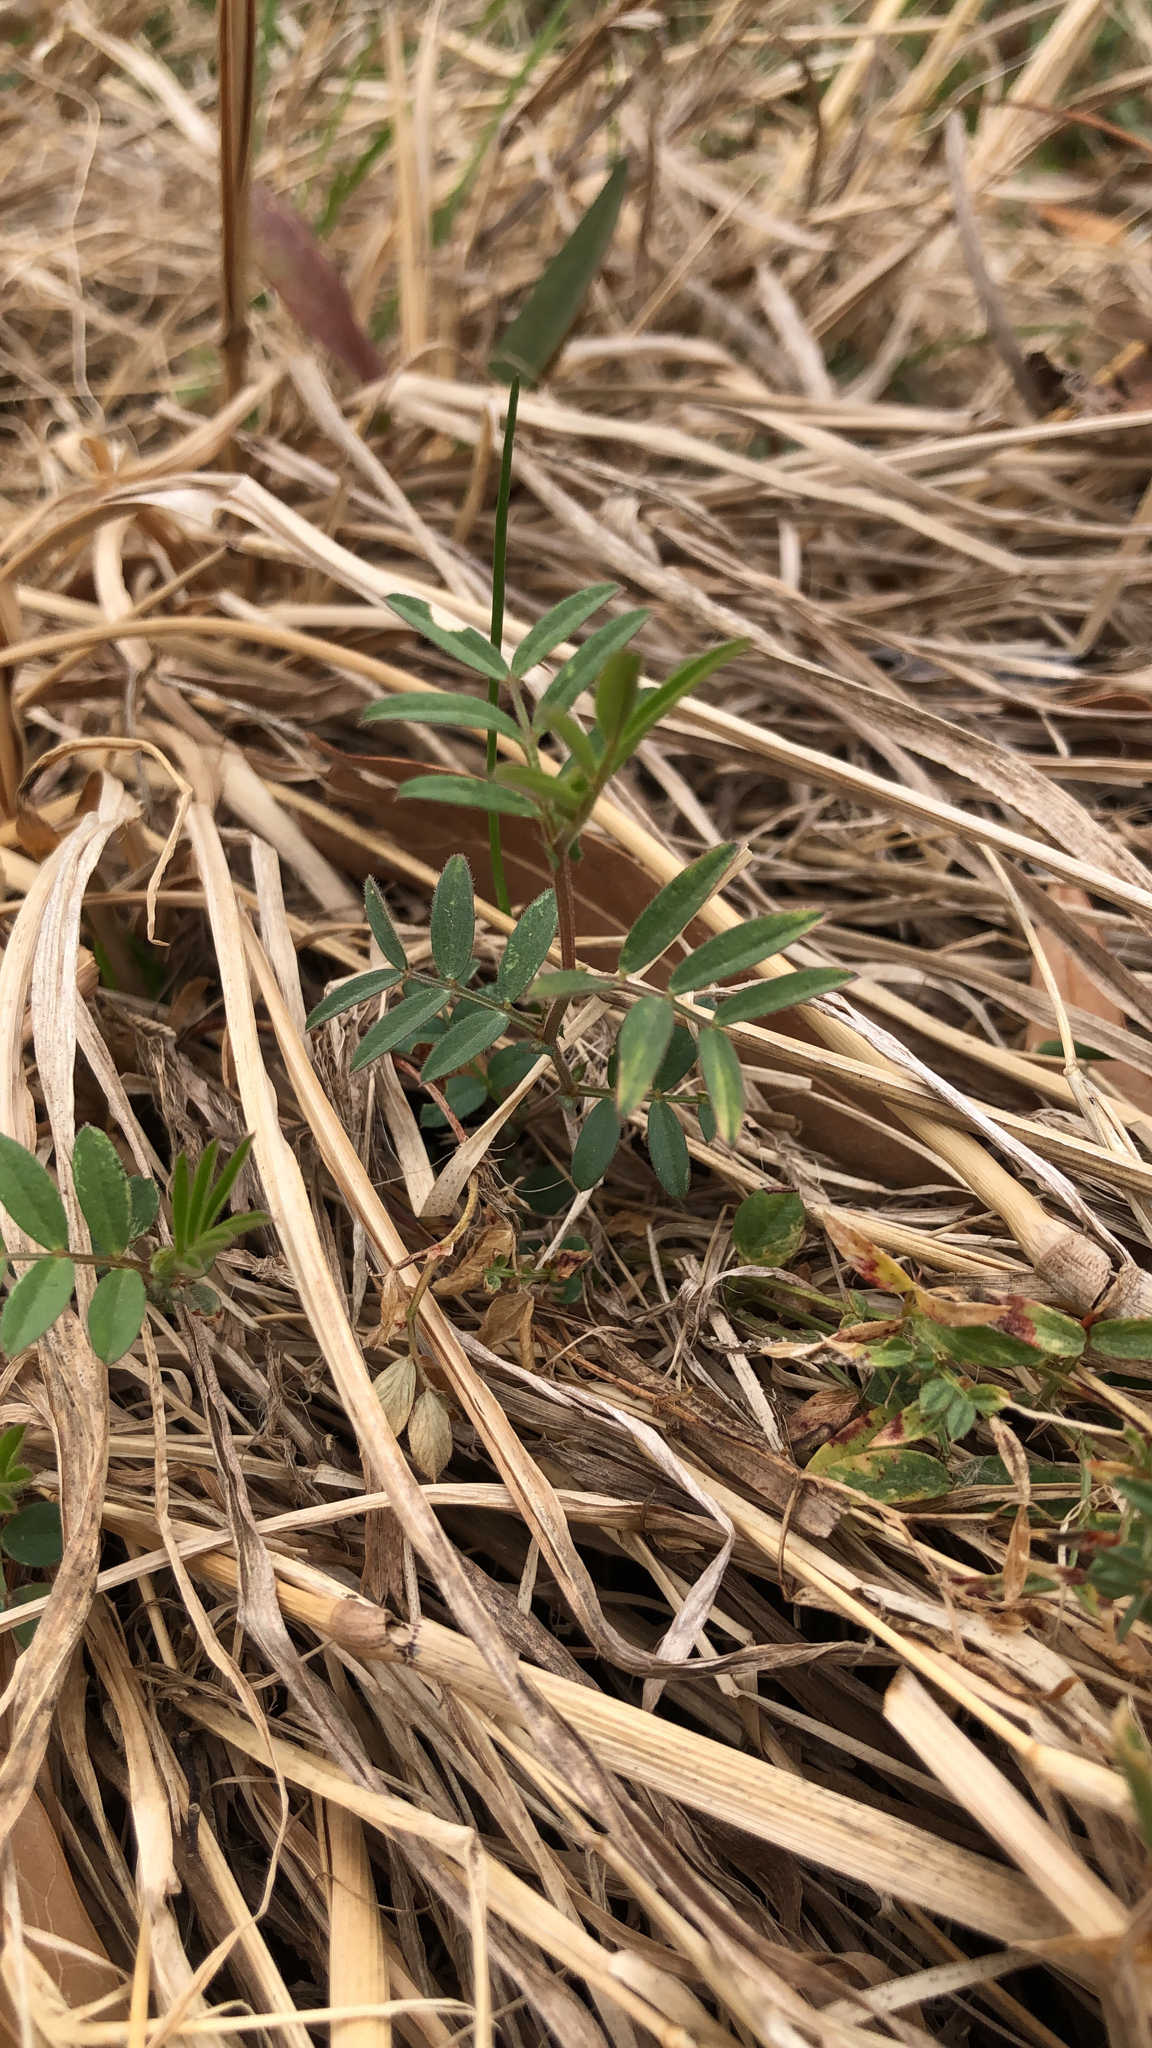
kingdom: Plantae
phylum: Tracheophyta
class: Magnoliopsida
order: Fabales
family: Fabaceae
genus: Vicia
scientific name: Vicia sativa
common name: Garden vetch
